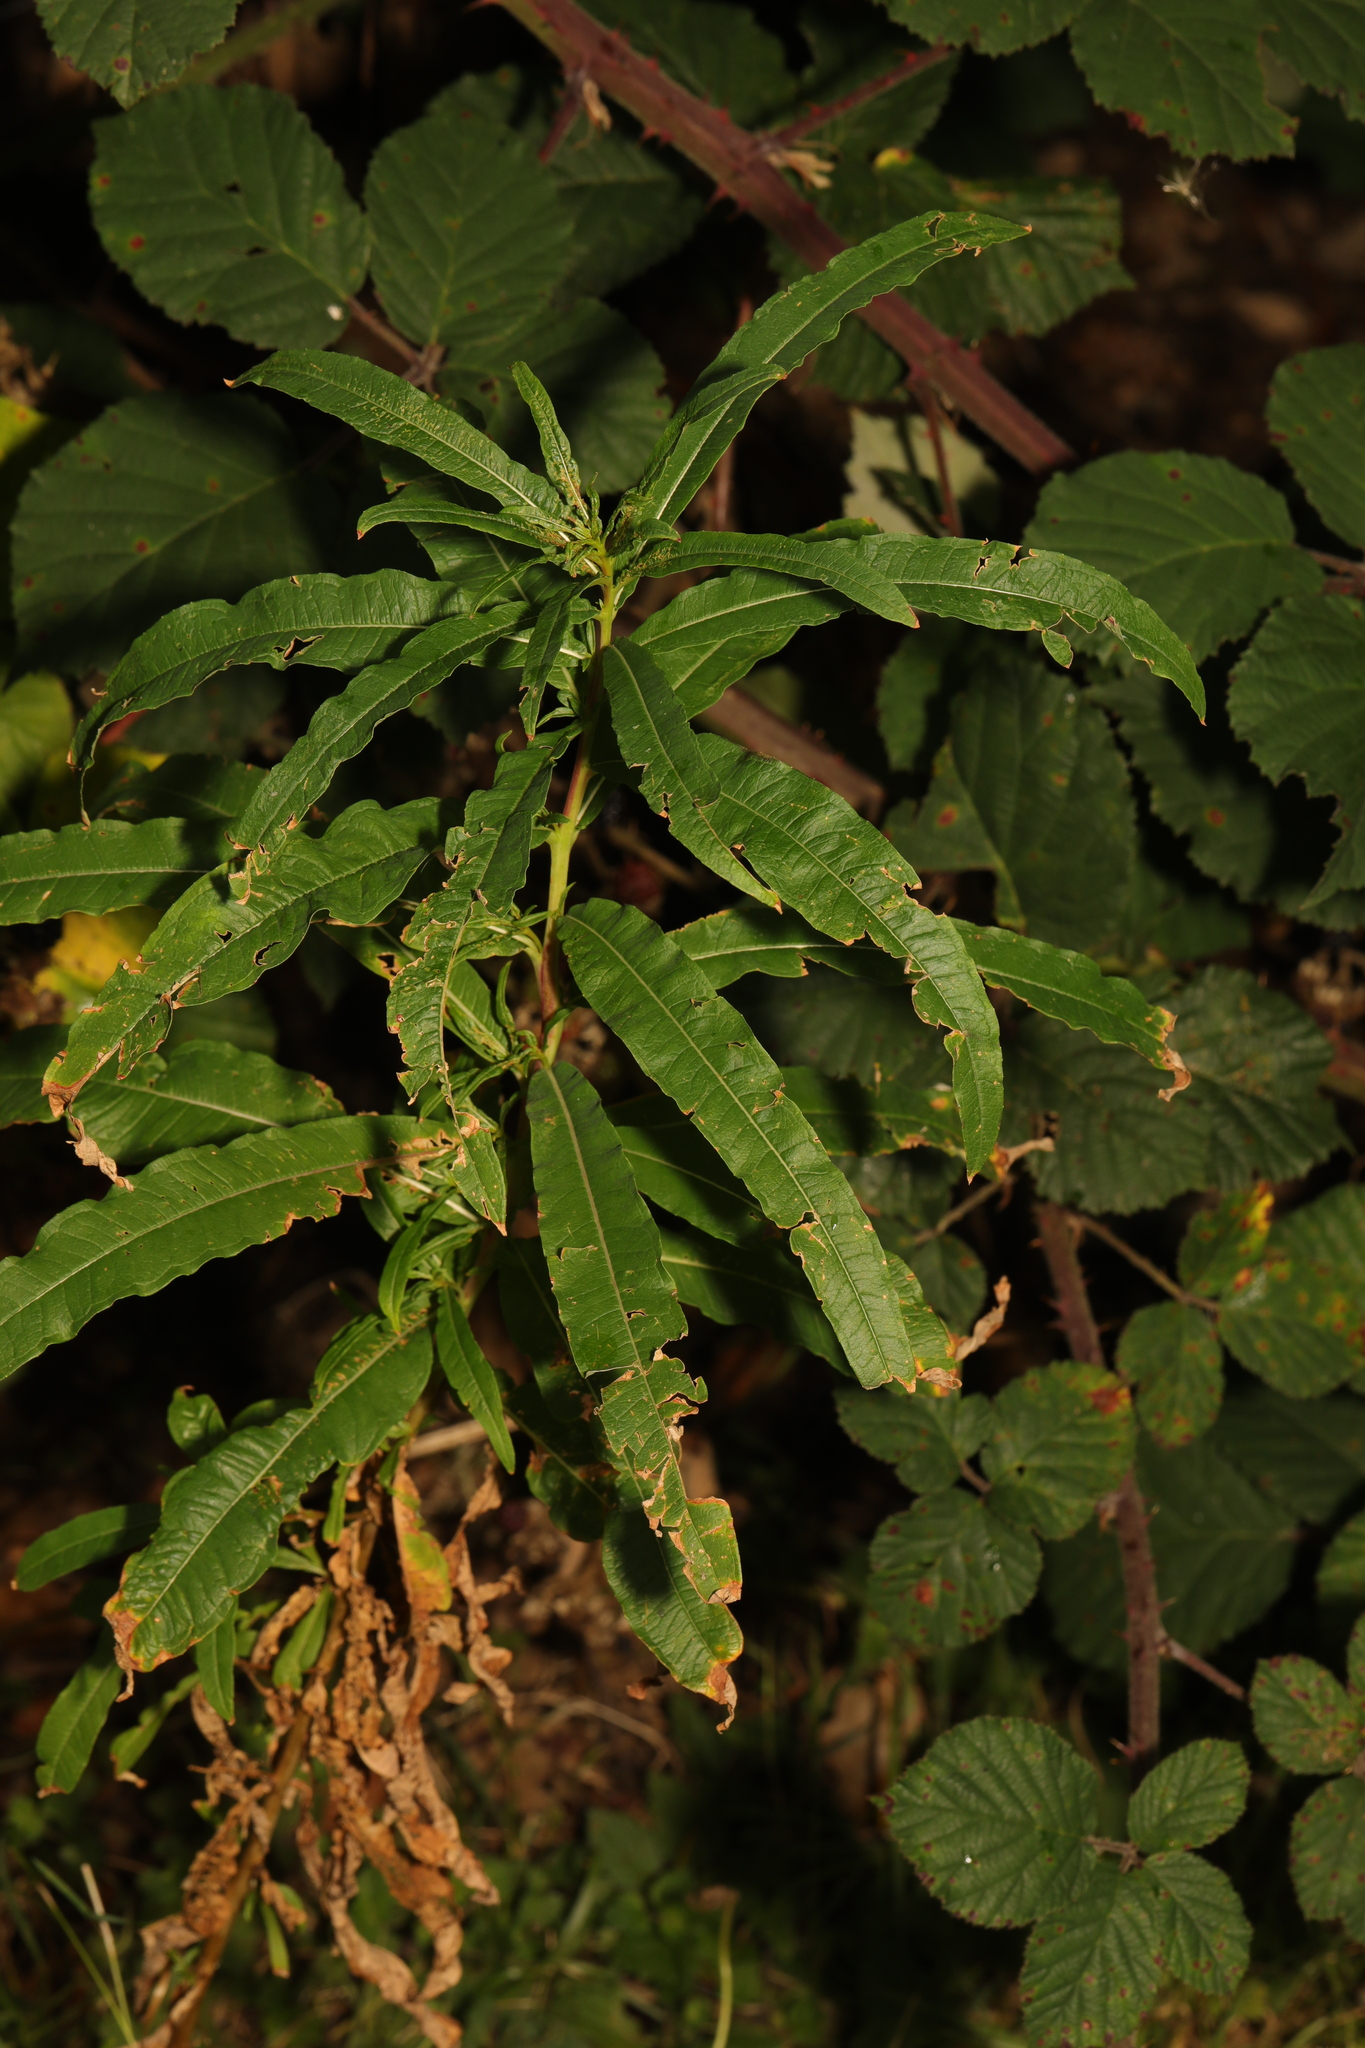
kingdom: Plantae
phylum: Tracheophyta
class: Magnoliopsida
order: Myrtales
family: Onagraceae
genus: Chamaenerion
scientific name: Chamaenerion angustifolium
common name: Fireweed
